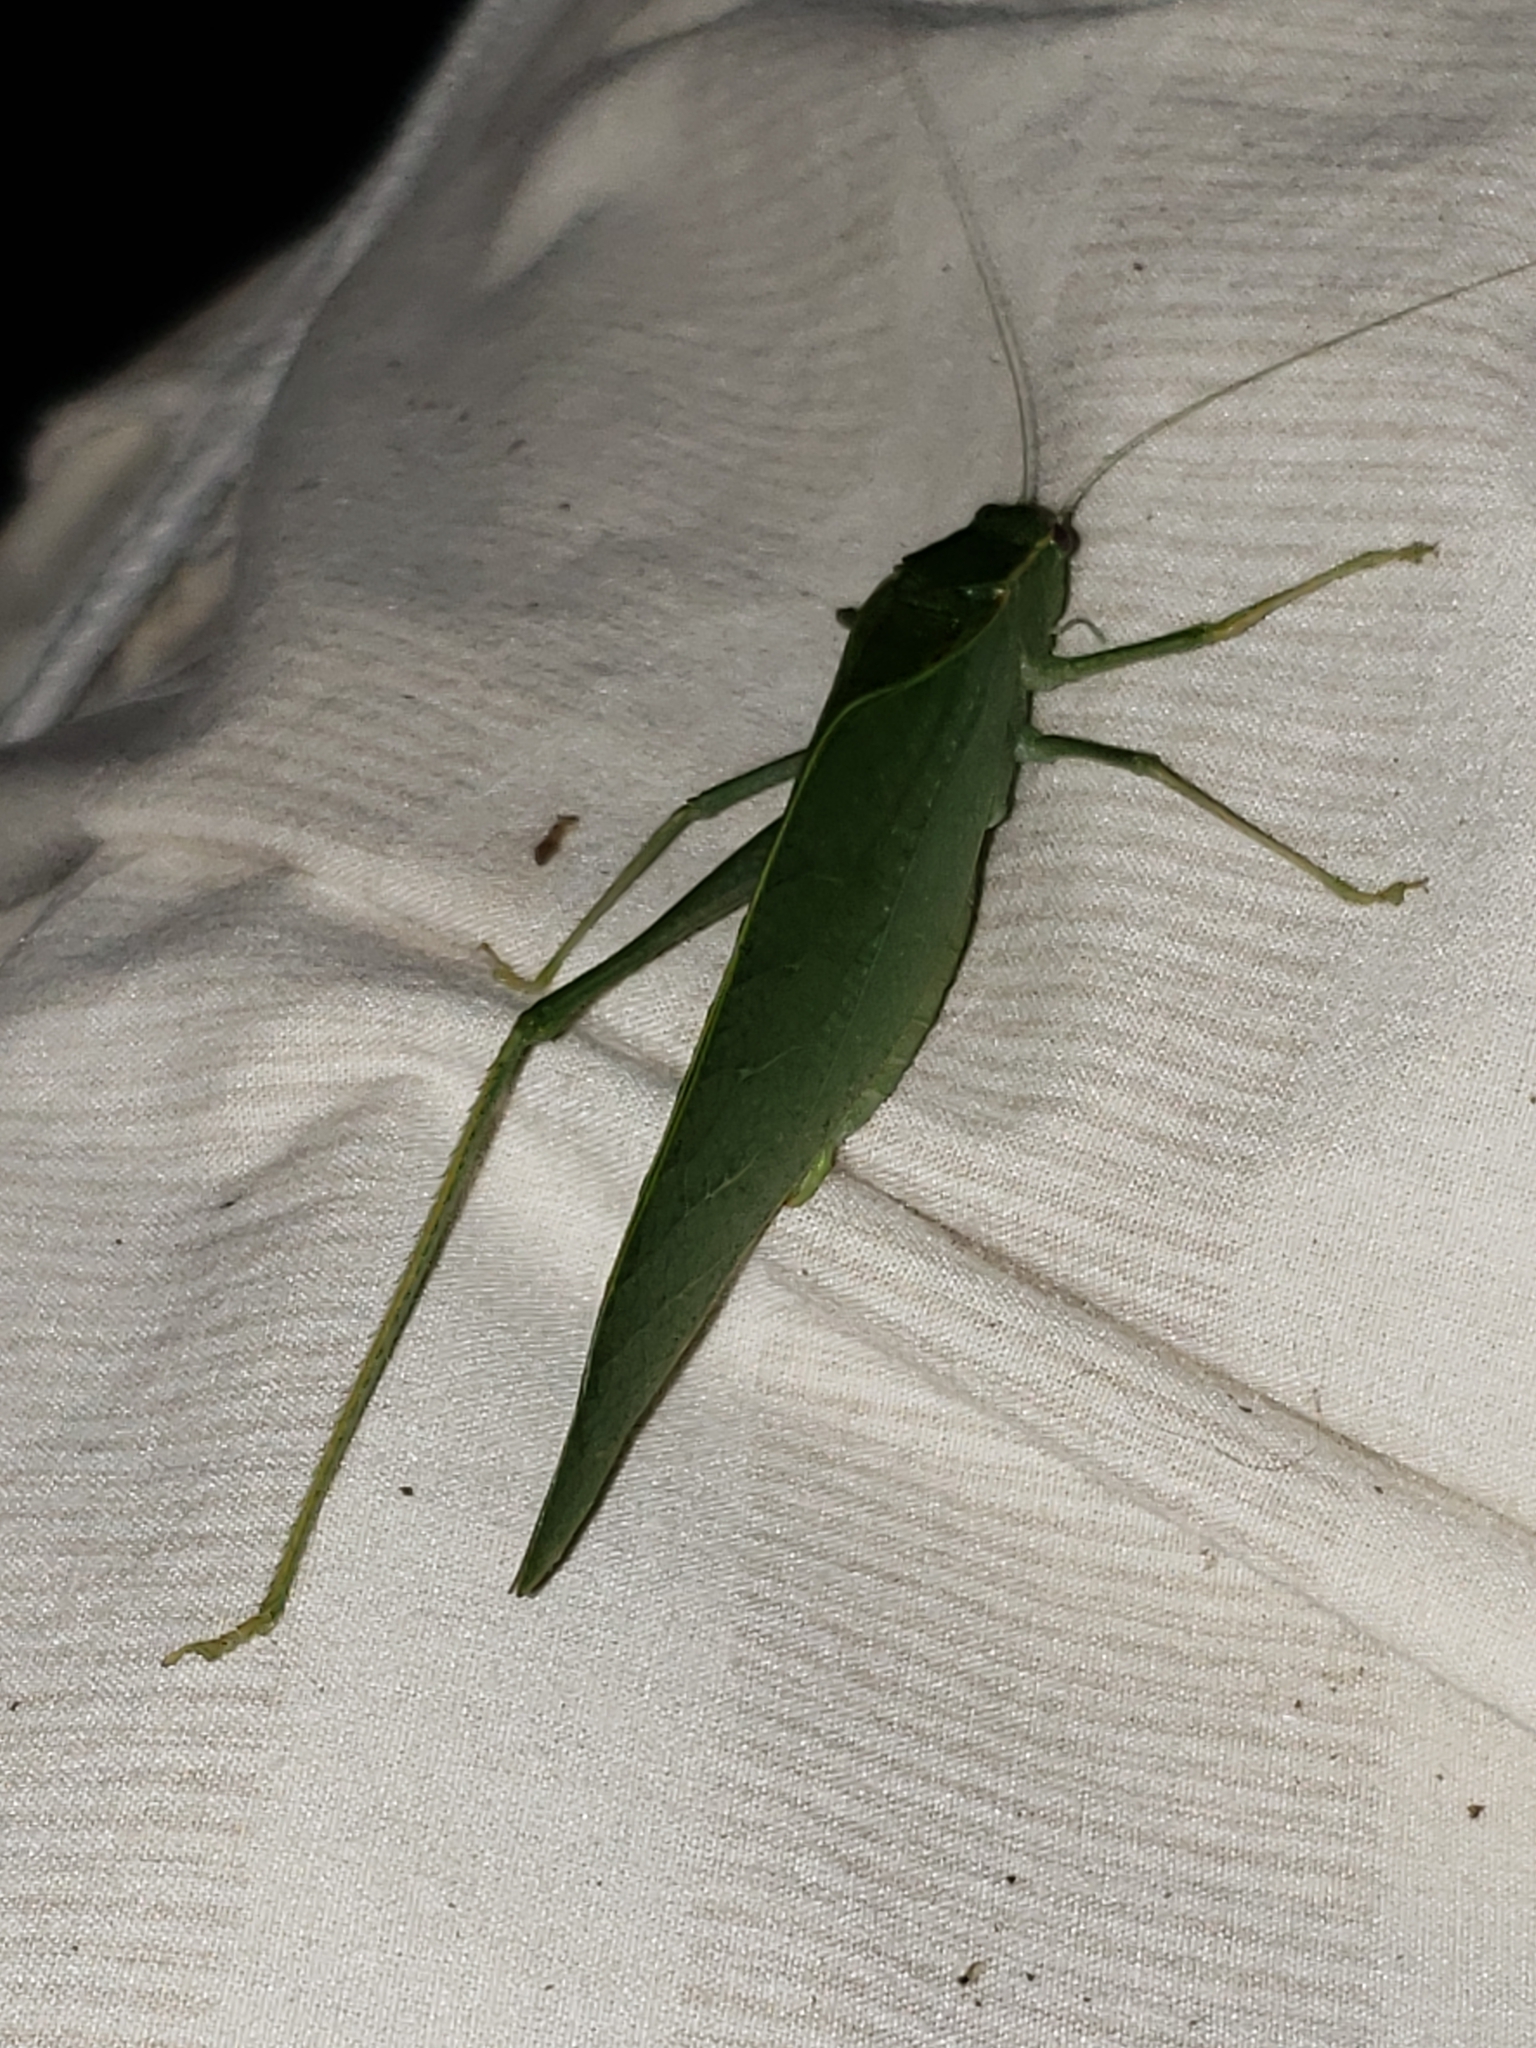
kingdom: Animalia
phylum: Arthropoda
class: Insecta
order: Orthoptera
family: Tettigoniidae
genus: Microcentrum
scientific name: Microcentrum rhombifolium
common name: Broad-winged katydid
